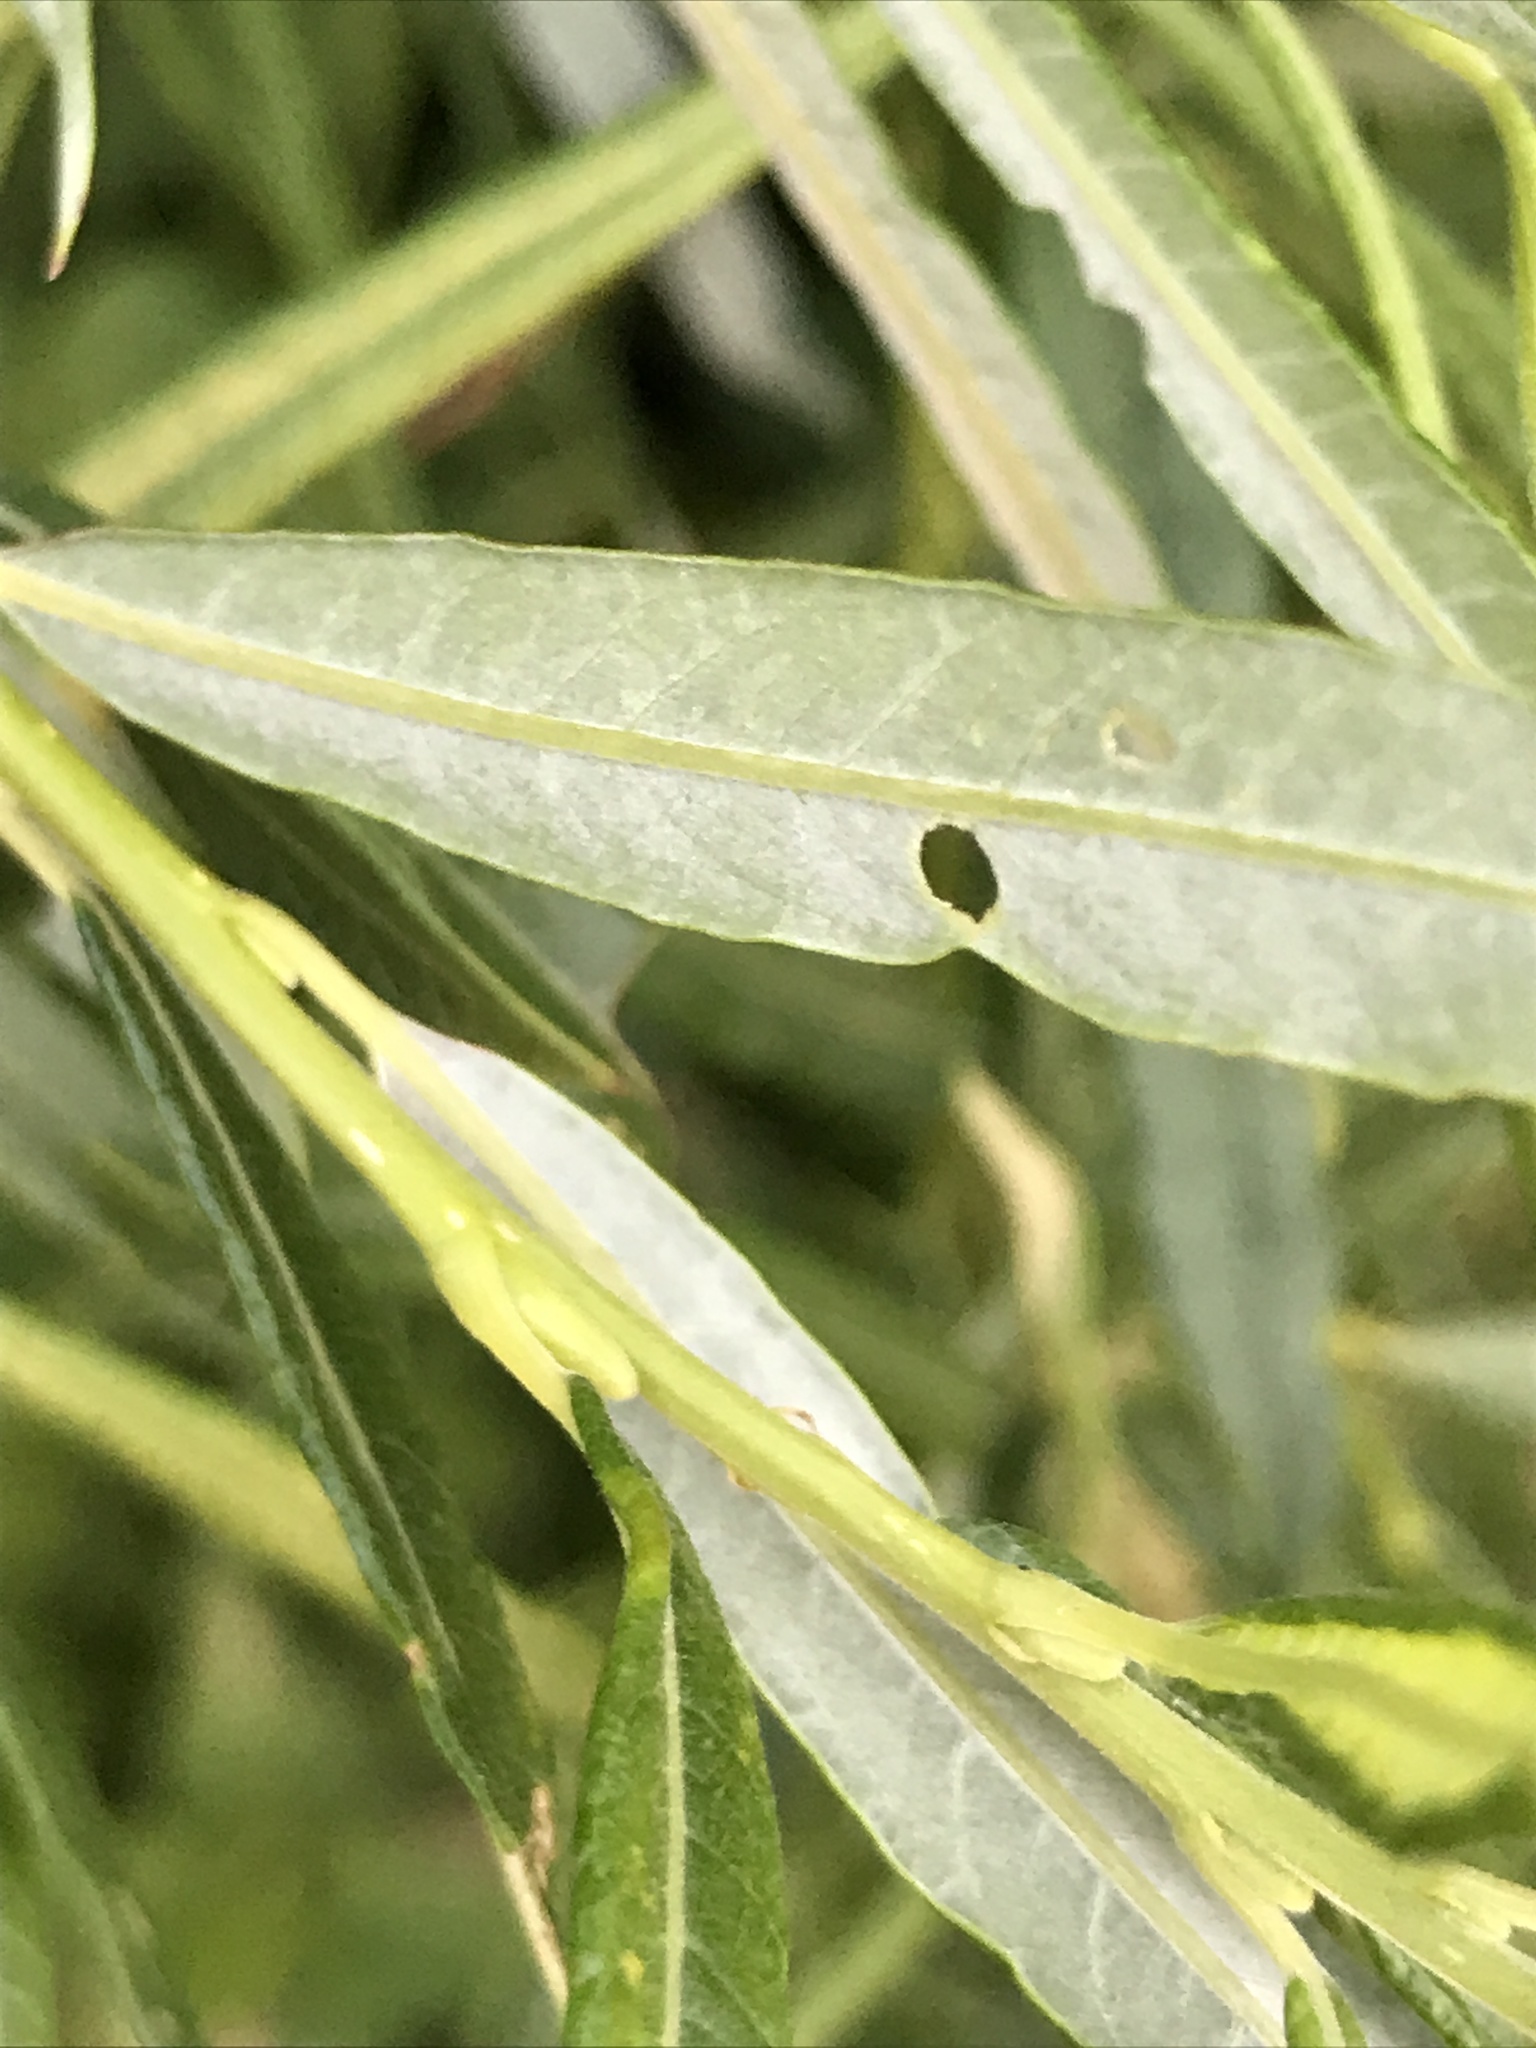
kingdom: Plantae
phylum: Tracheophyta
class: Magnoliopsida
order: Malpighiales
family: Salicaceae
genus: Salix
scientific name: Salix viminalis
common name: Osier
